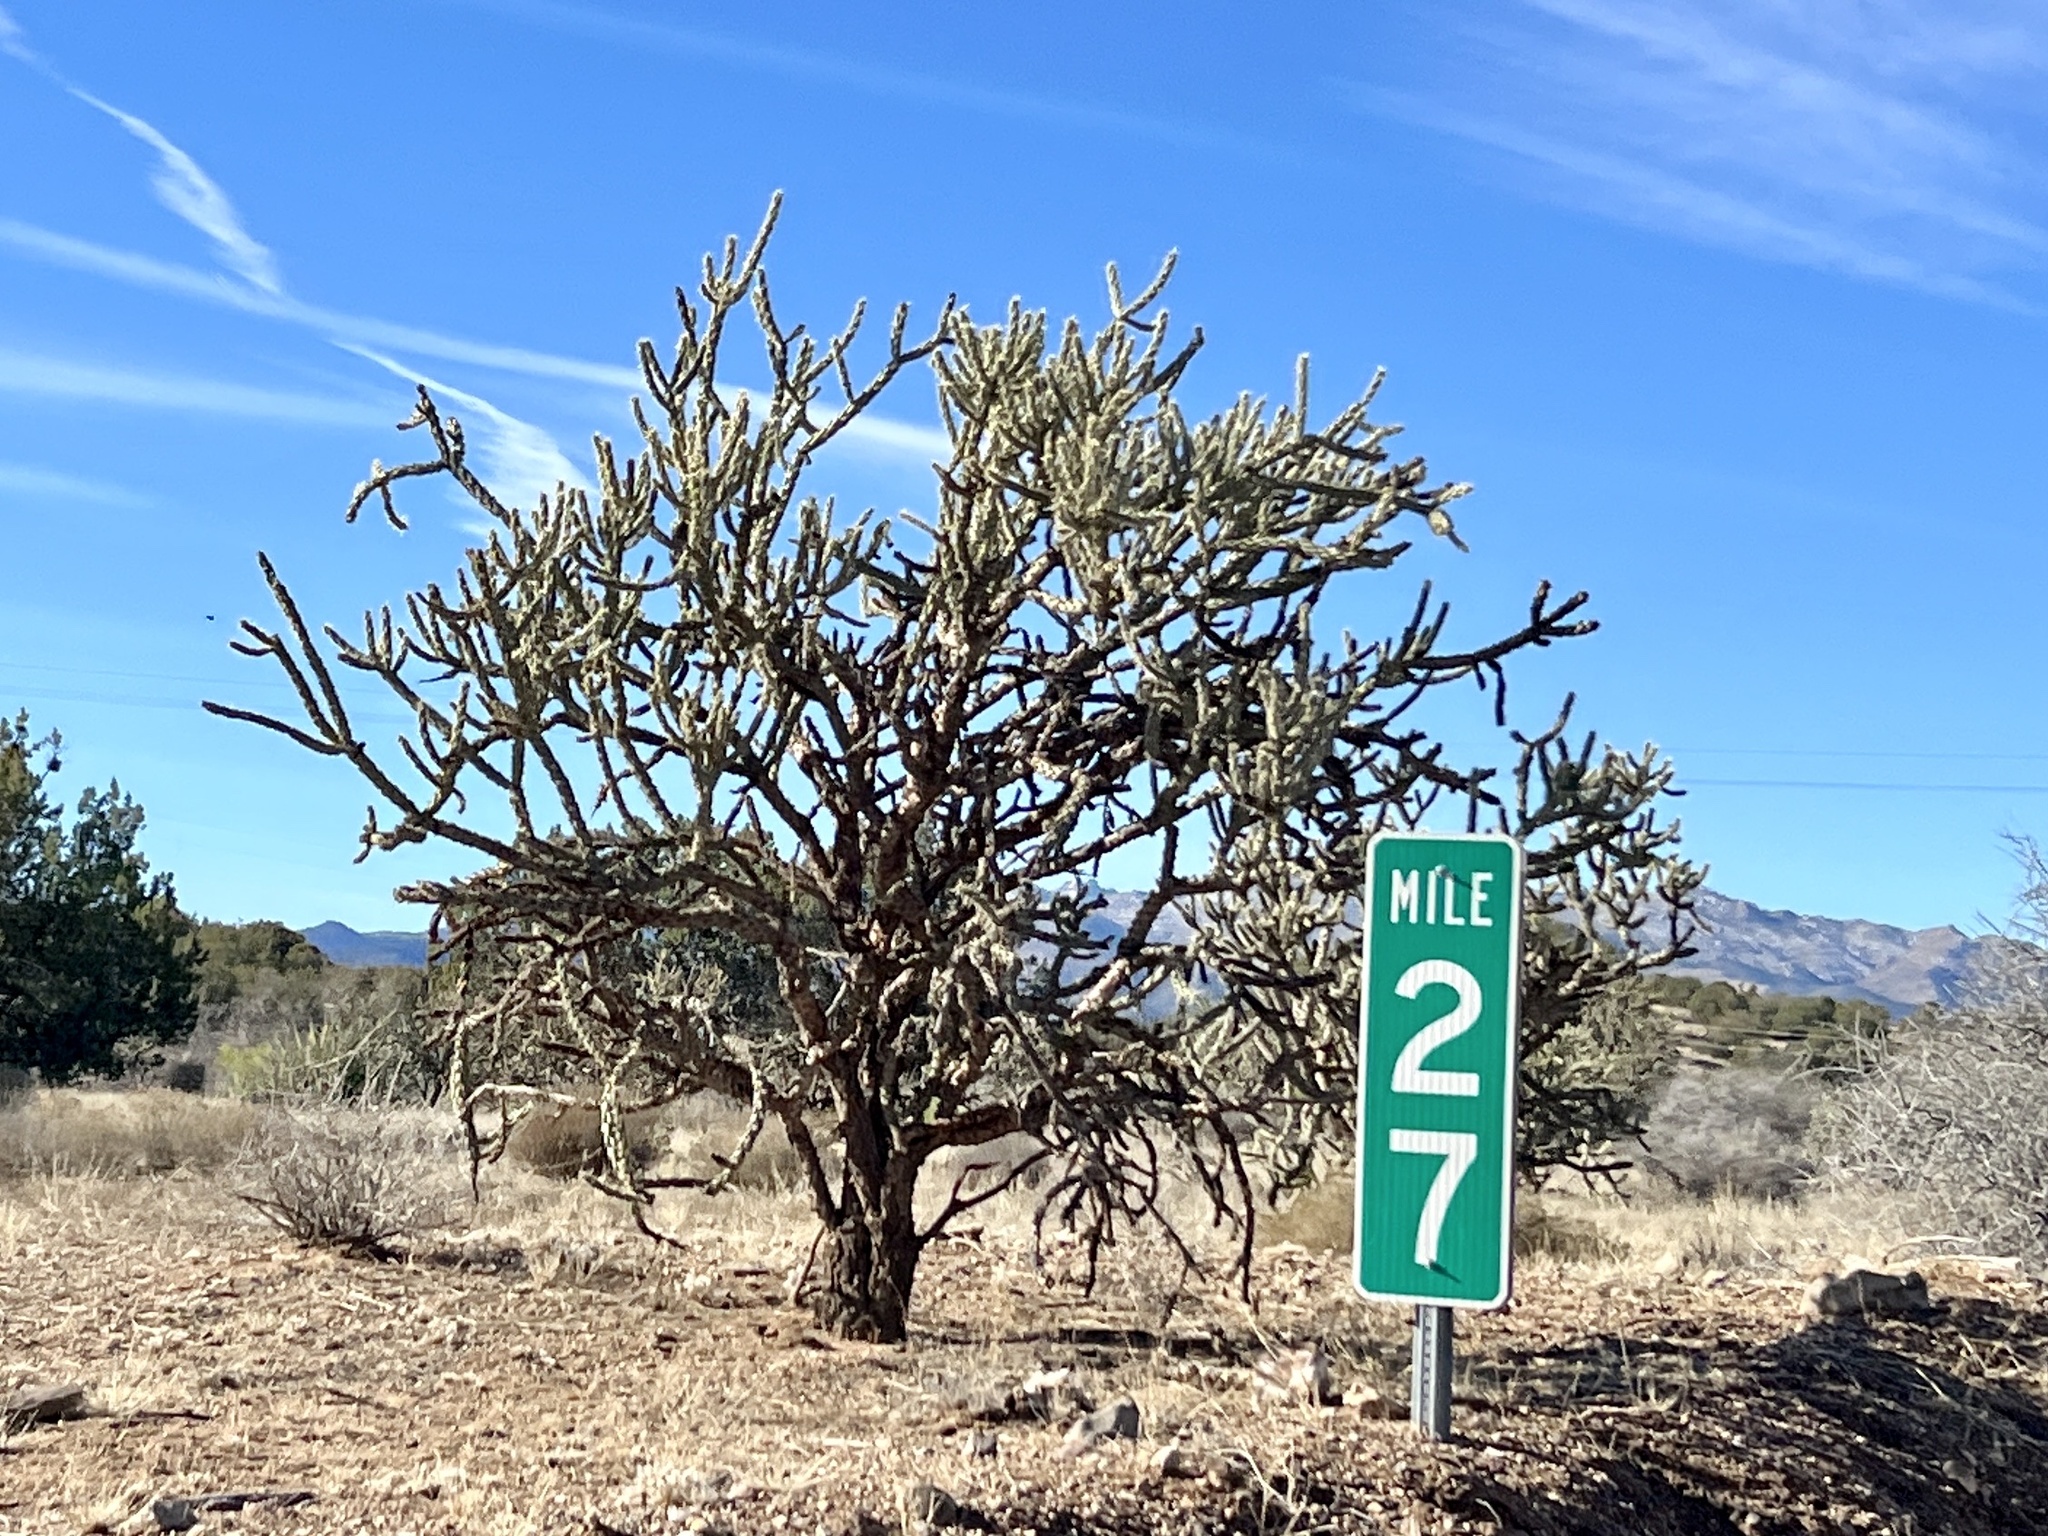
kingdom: Plantae
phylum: Tracheophyta
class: Magnoliopsida
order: Caryophyllales
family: Cactaceae
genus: Cylindropuntia
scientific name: Cylindropuntia acanthocarpa
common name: Buckhorn cholla
